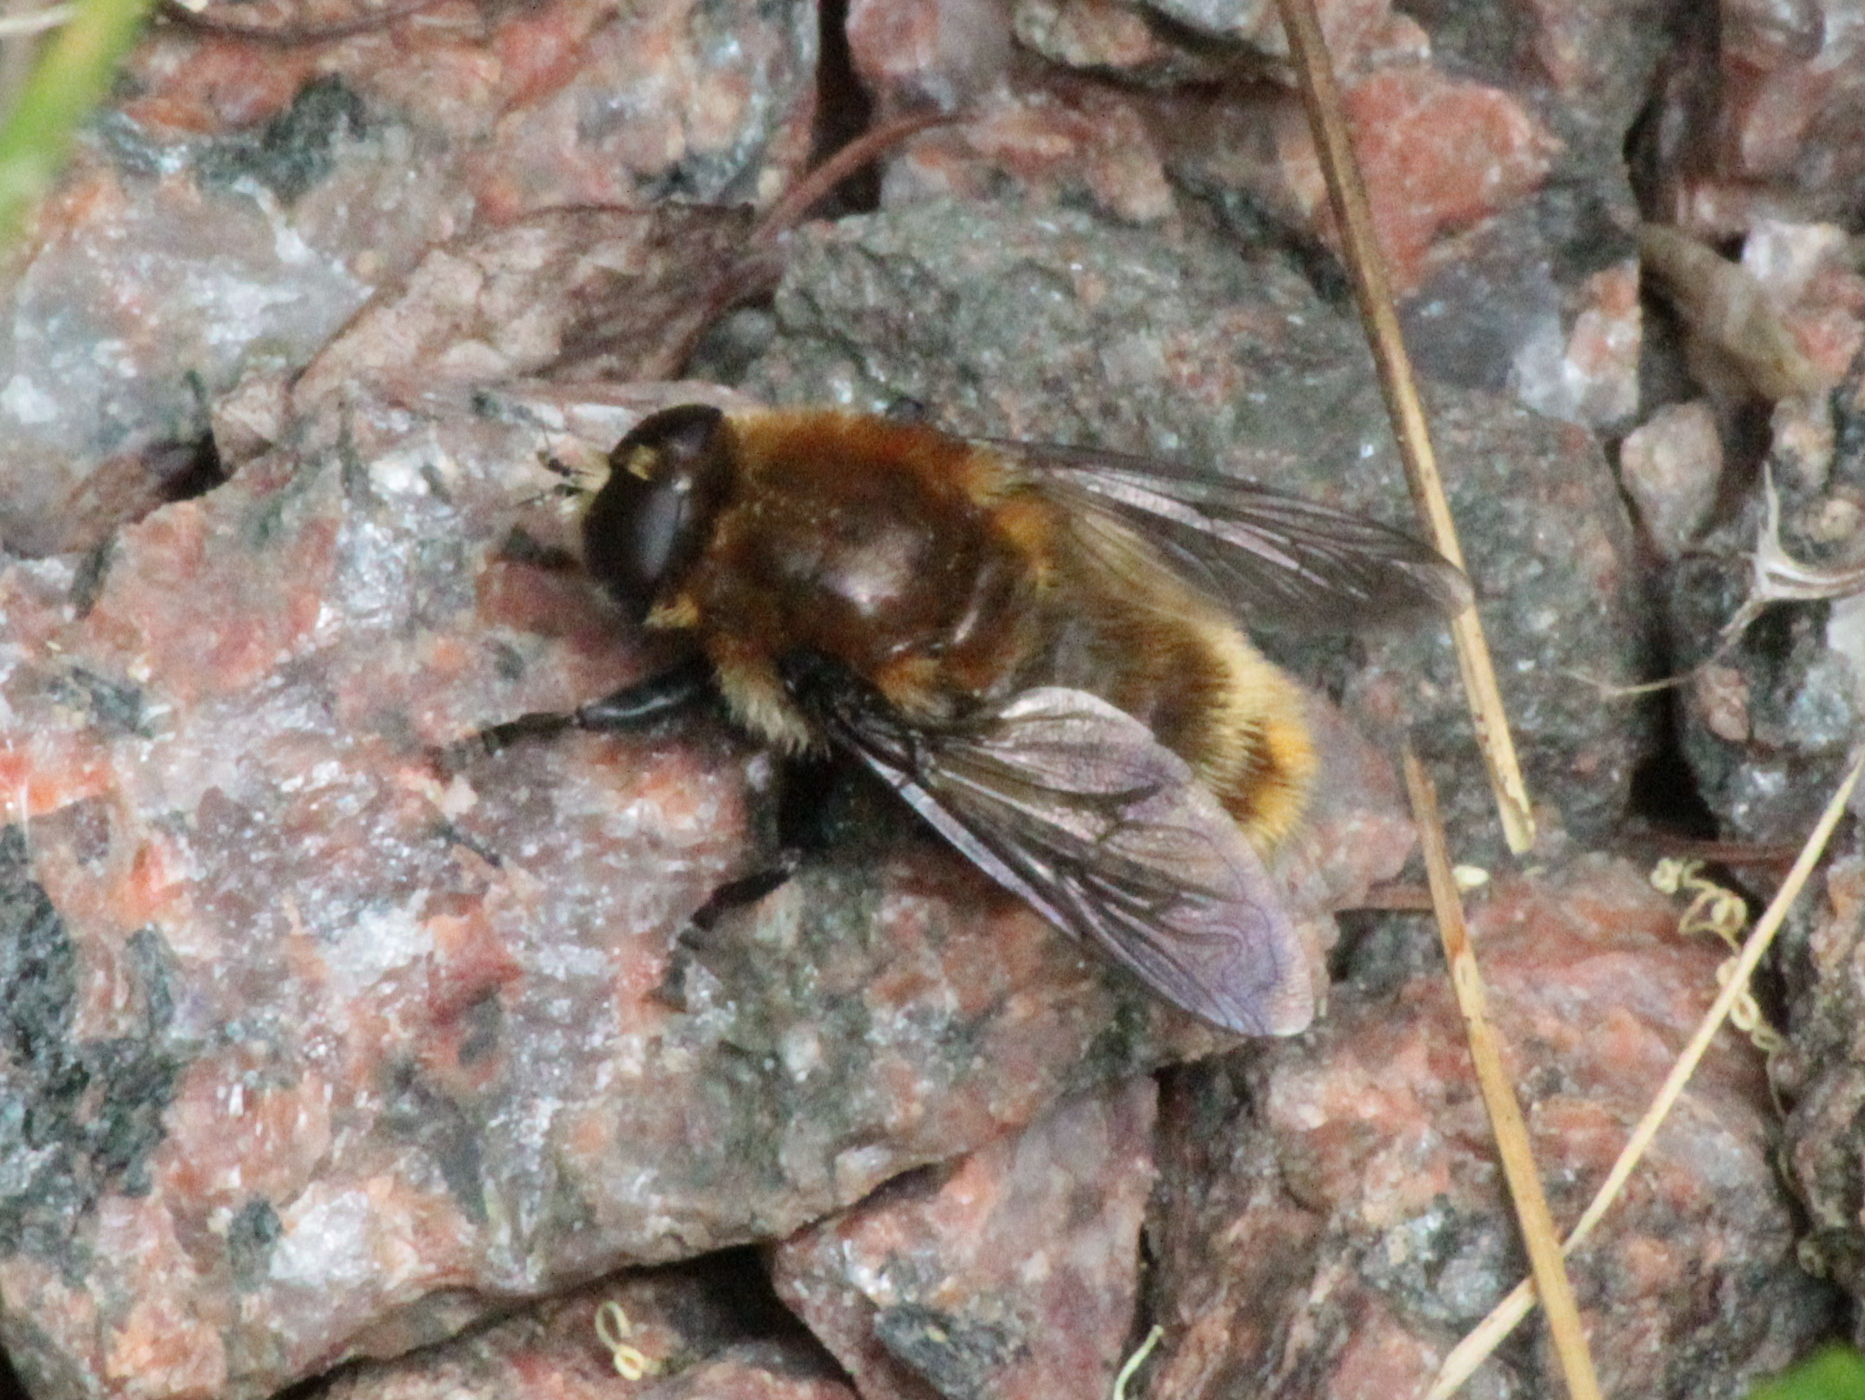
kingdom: Animalia
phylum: Arthropoda
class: Insecta
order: Diptera
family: Syrphidae
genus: Merodon
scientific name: Merodon equestris
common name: Greater bulb-fly
